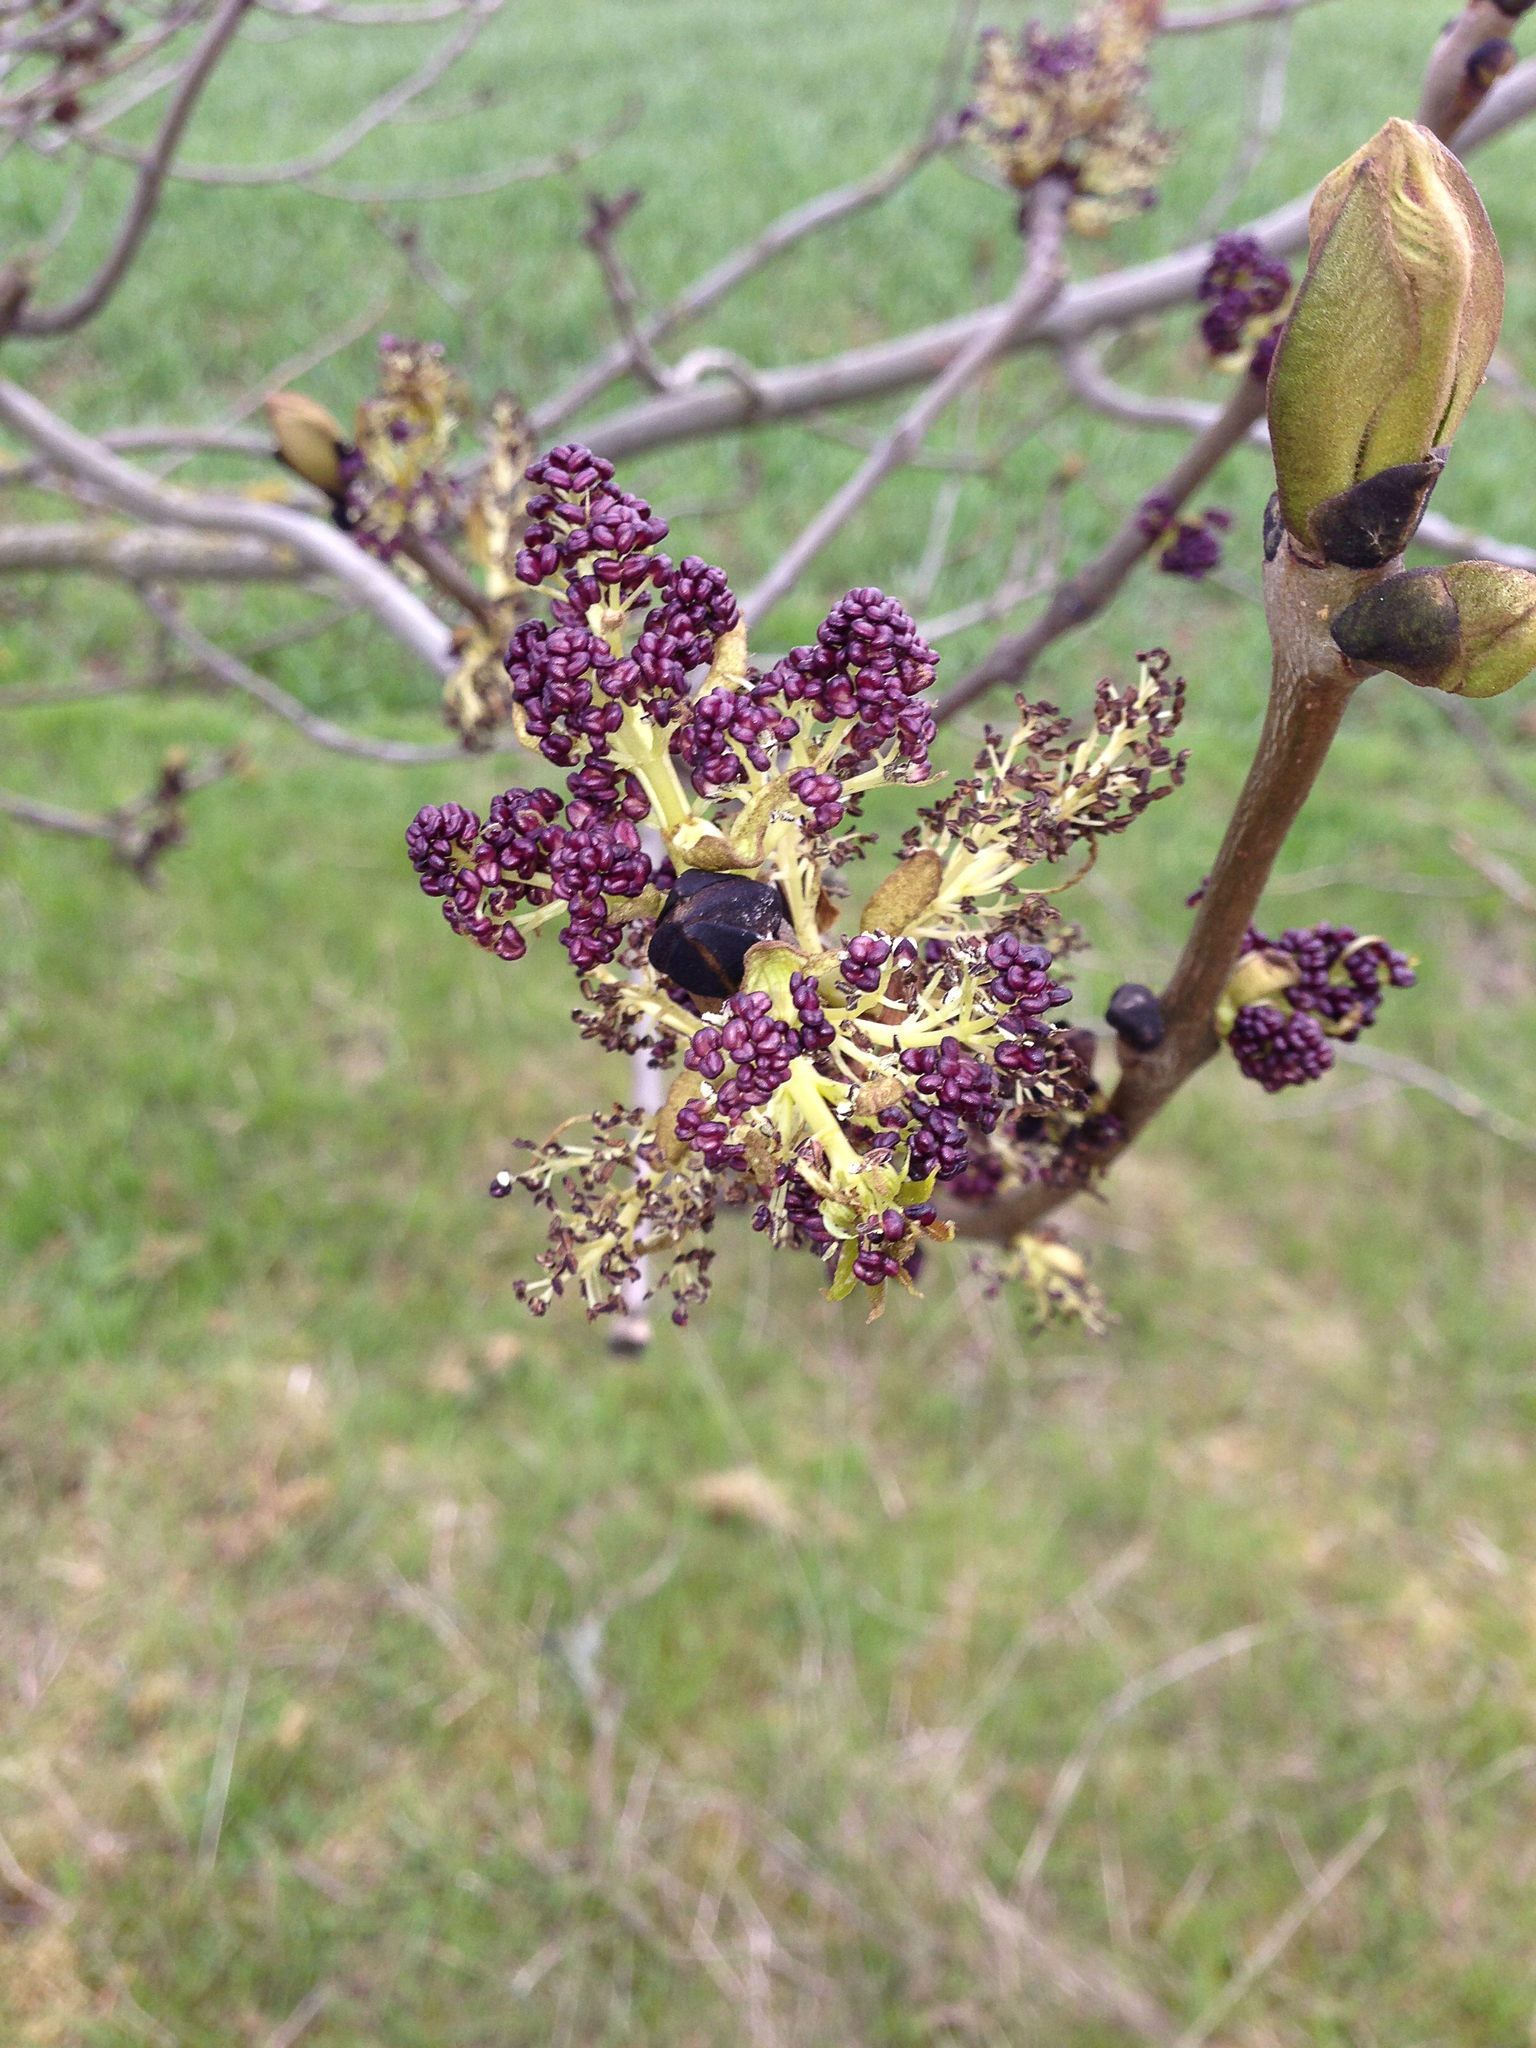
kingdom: Plantae
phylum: Tracheophyta
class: Magnoliopsida
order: Lamiales
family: Oleaceae
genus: Fraxinus
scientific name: Fraxinus excelsior
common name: European ash
